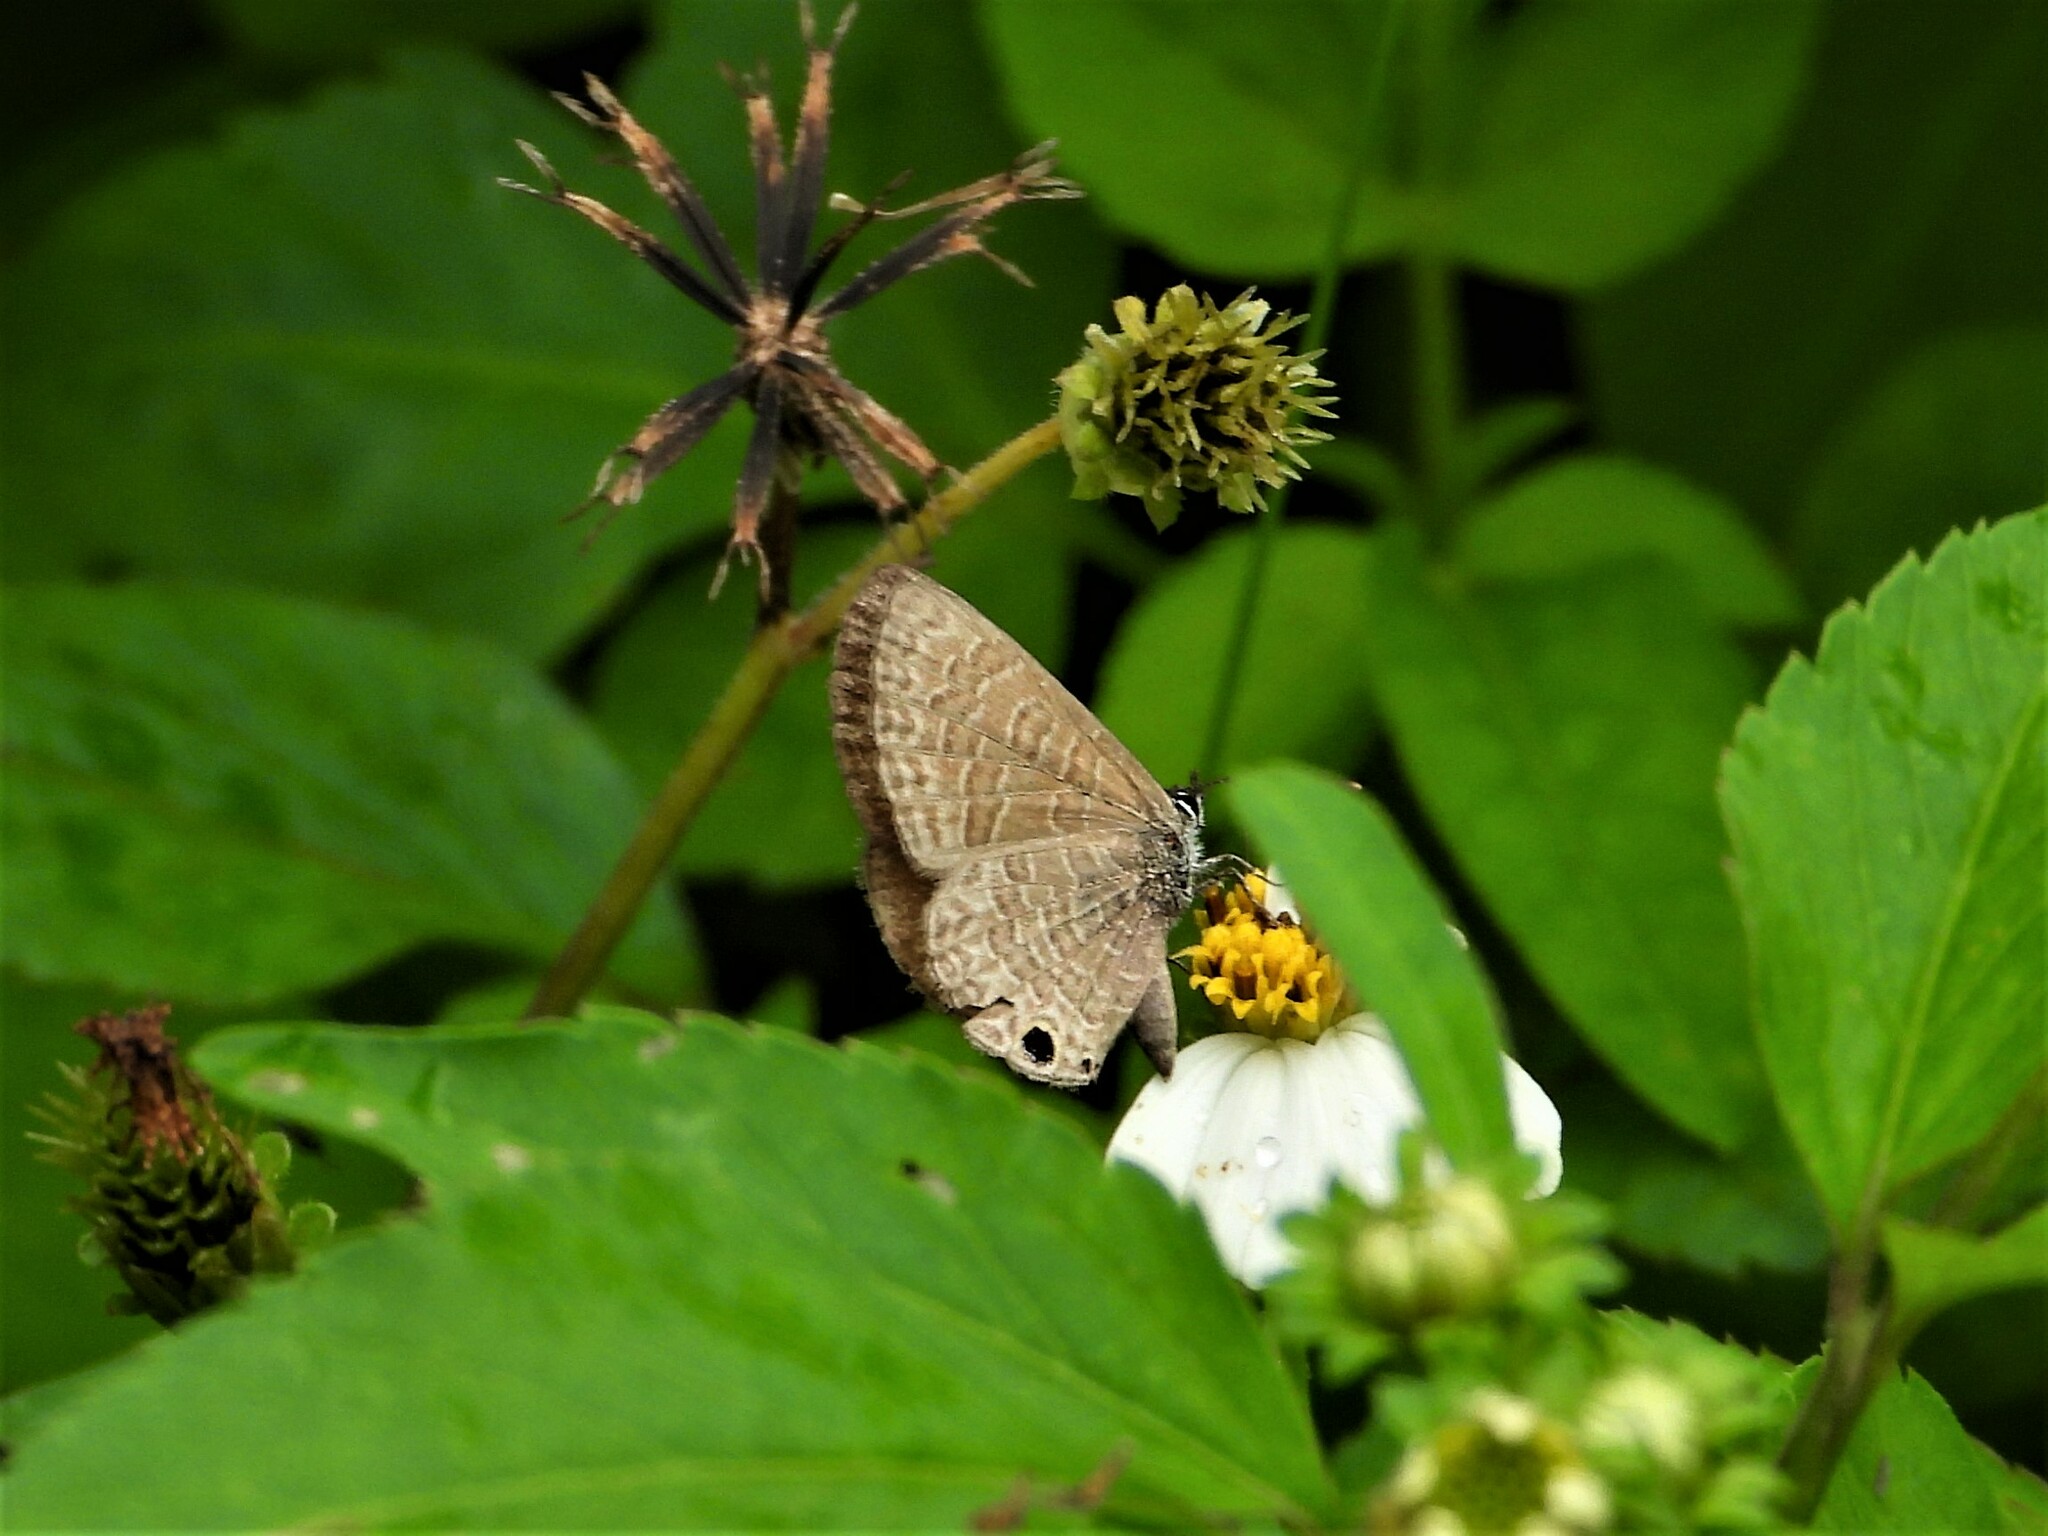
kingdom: Animalia
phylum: Arthropoda
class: Insecta
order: Lepidoptera
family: Lycaenidae
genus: Prosotas
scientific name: Prosotas dubiosa
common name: Tailless lineblue
